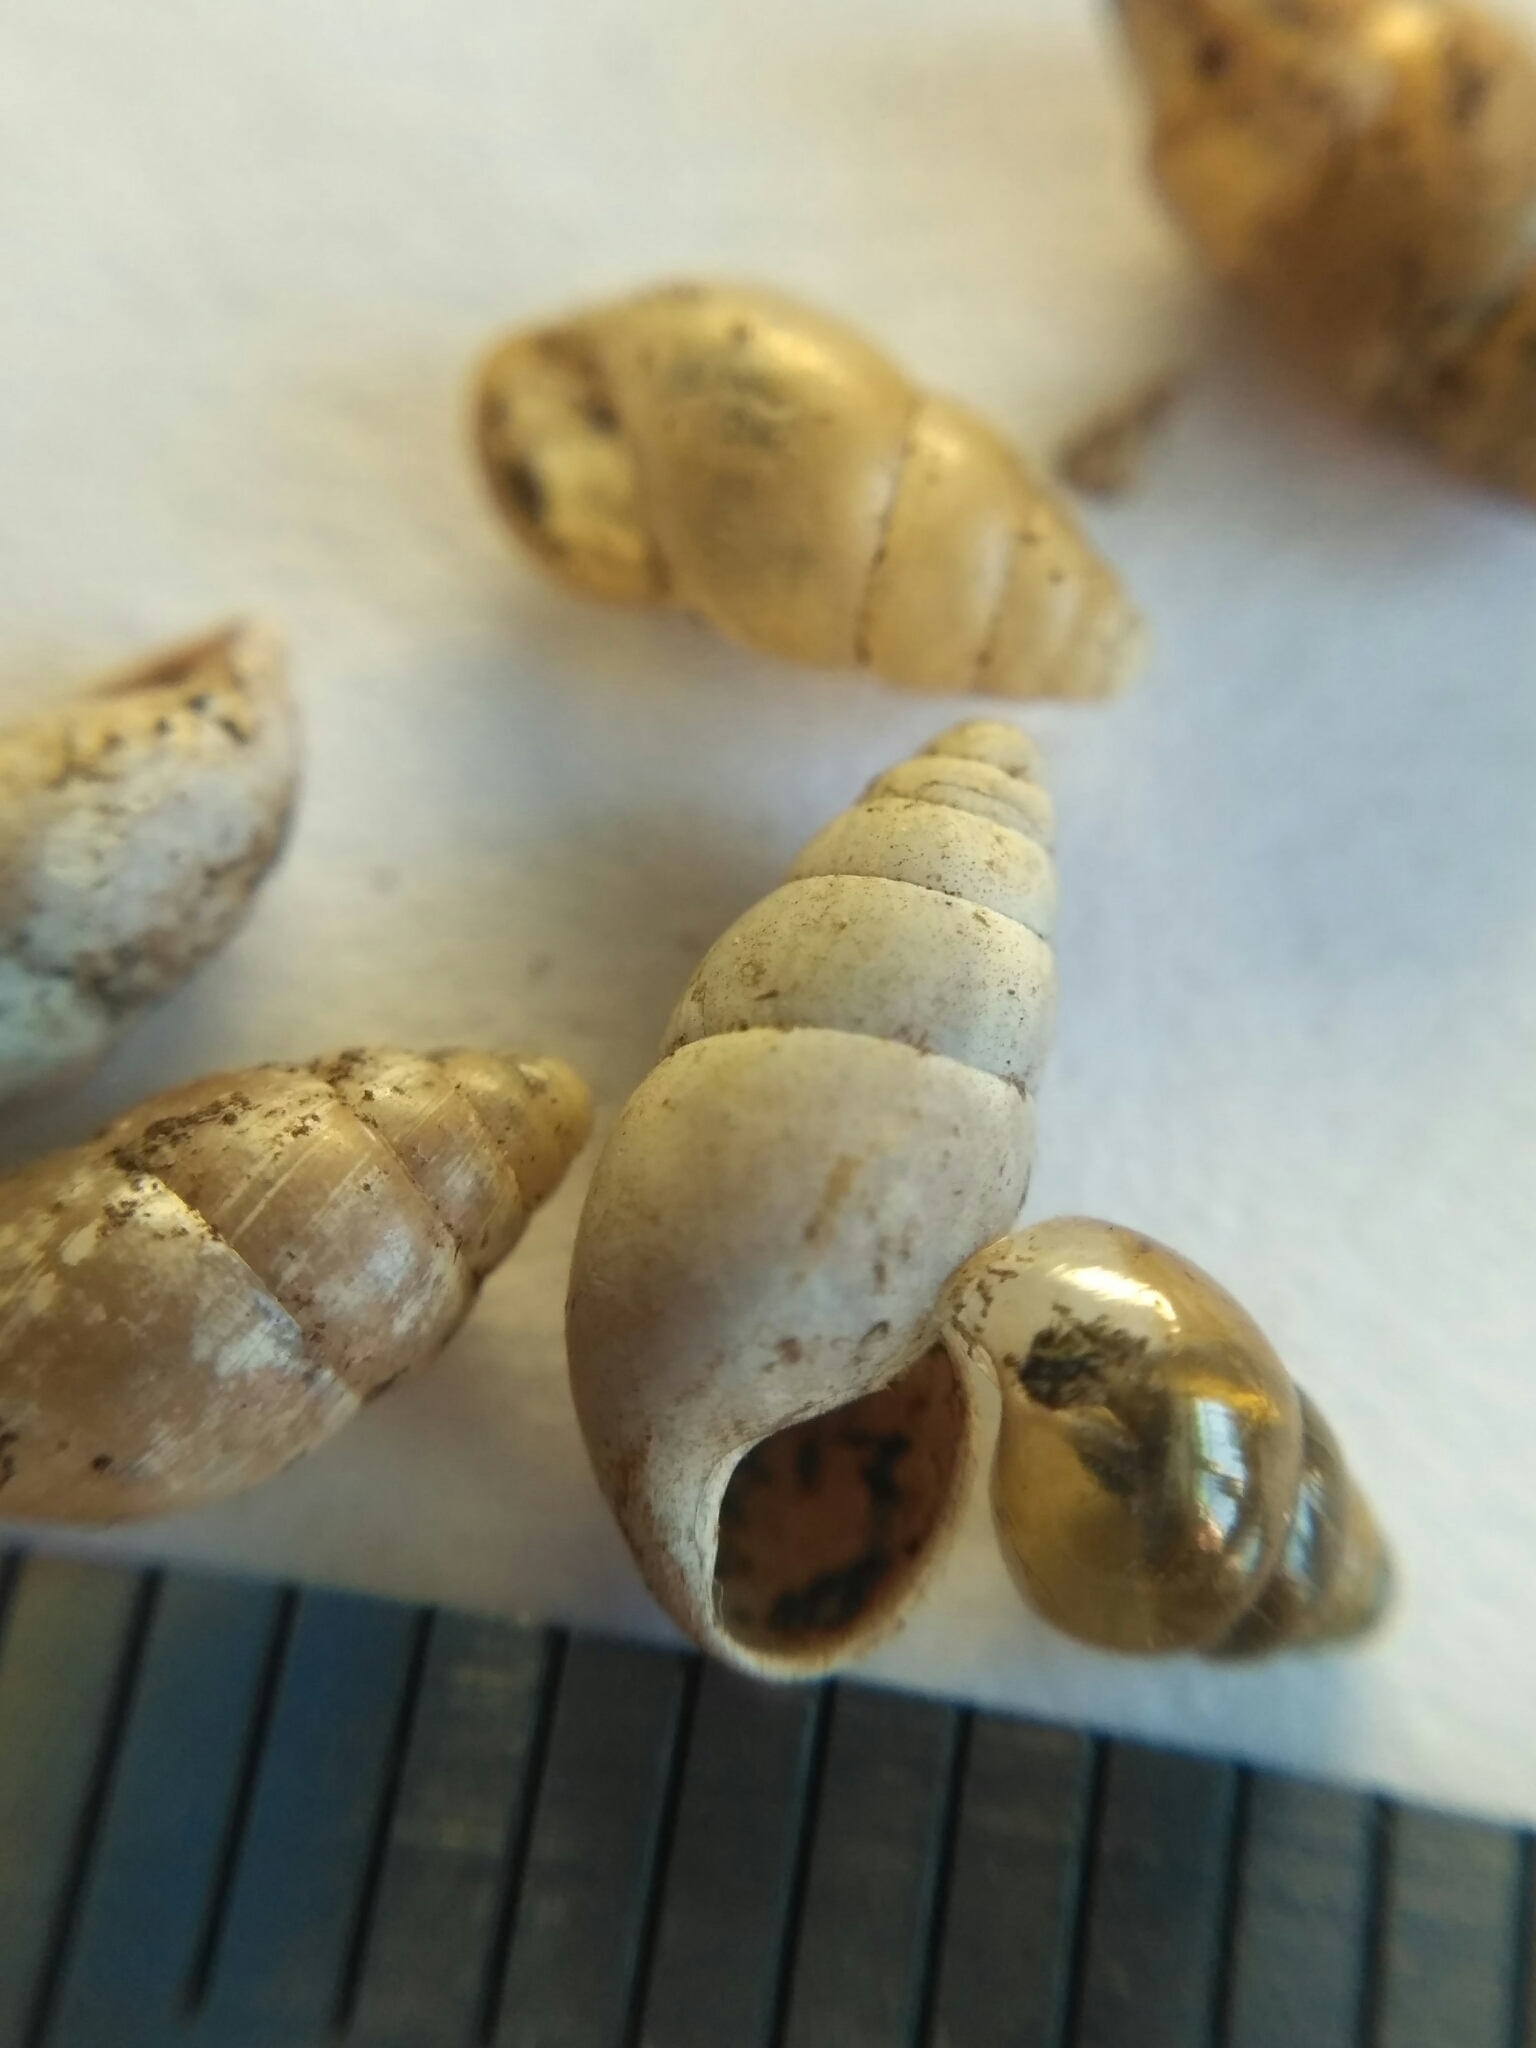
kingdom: Animalia
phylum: Mollusca
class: Gastropoda
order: Stylommatophora
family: Cochlicopidae
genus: Cochlicopa
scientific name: Cochlicopa nitens
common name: Robust pillar snail
